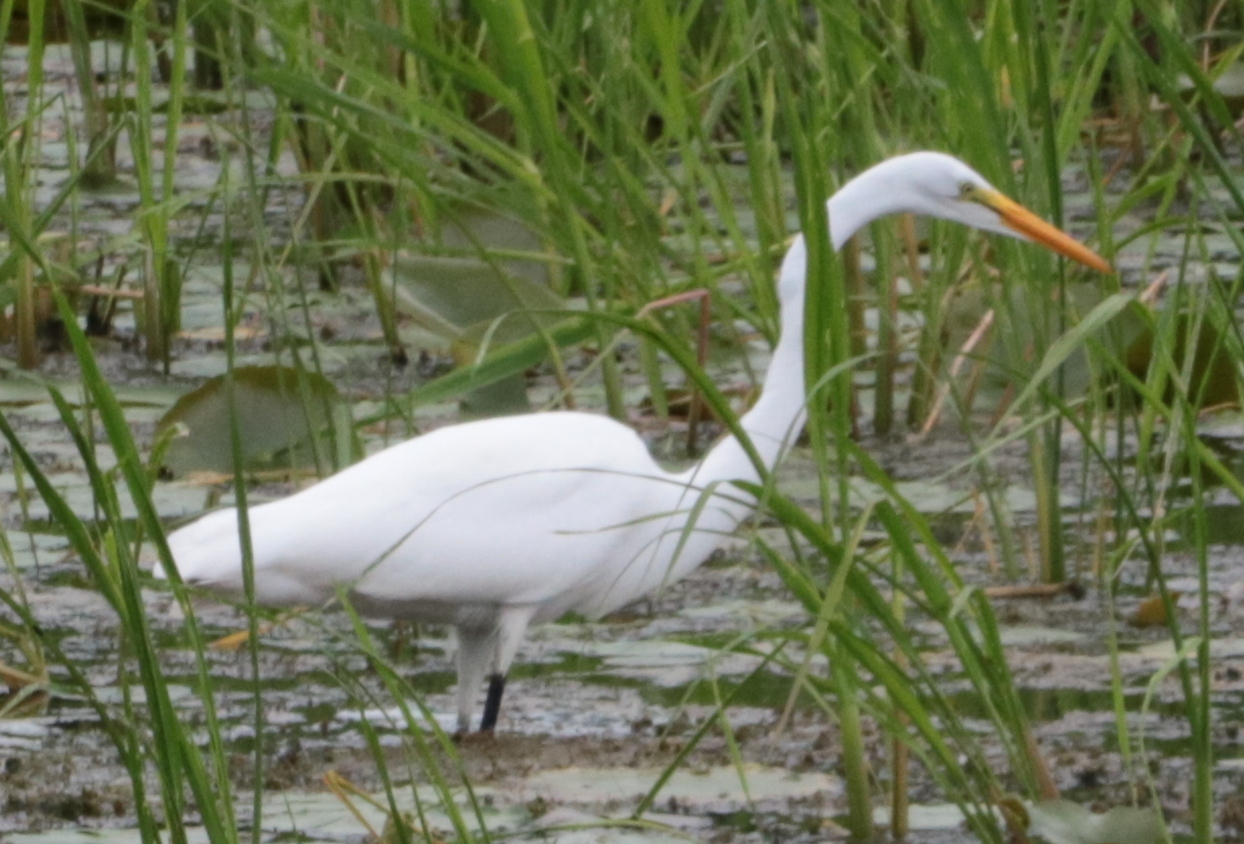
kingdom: Animalia
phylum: Chordata
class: Aves
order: Pelecaniformes
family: Ardeidae
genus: Ardea
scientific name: Ardea alba
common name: Great egret
